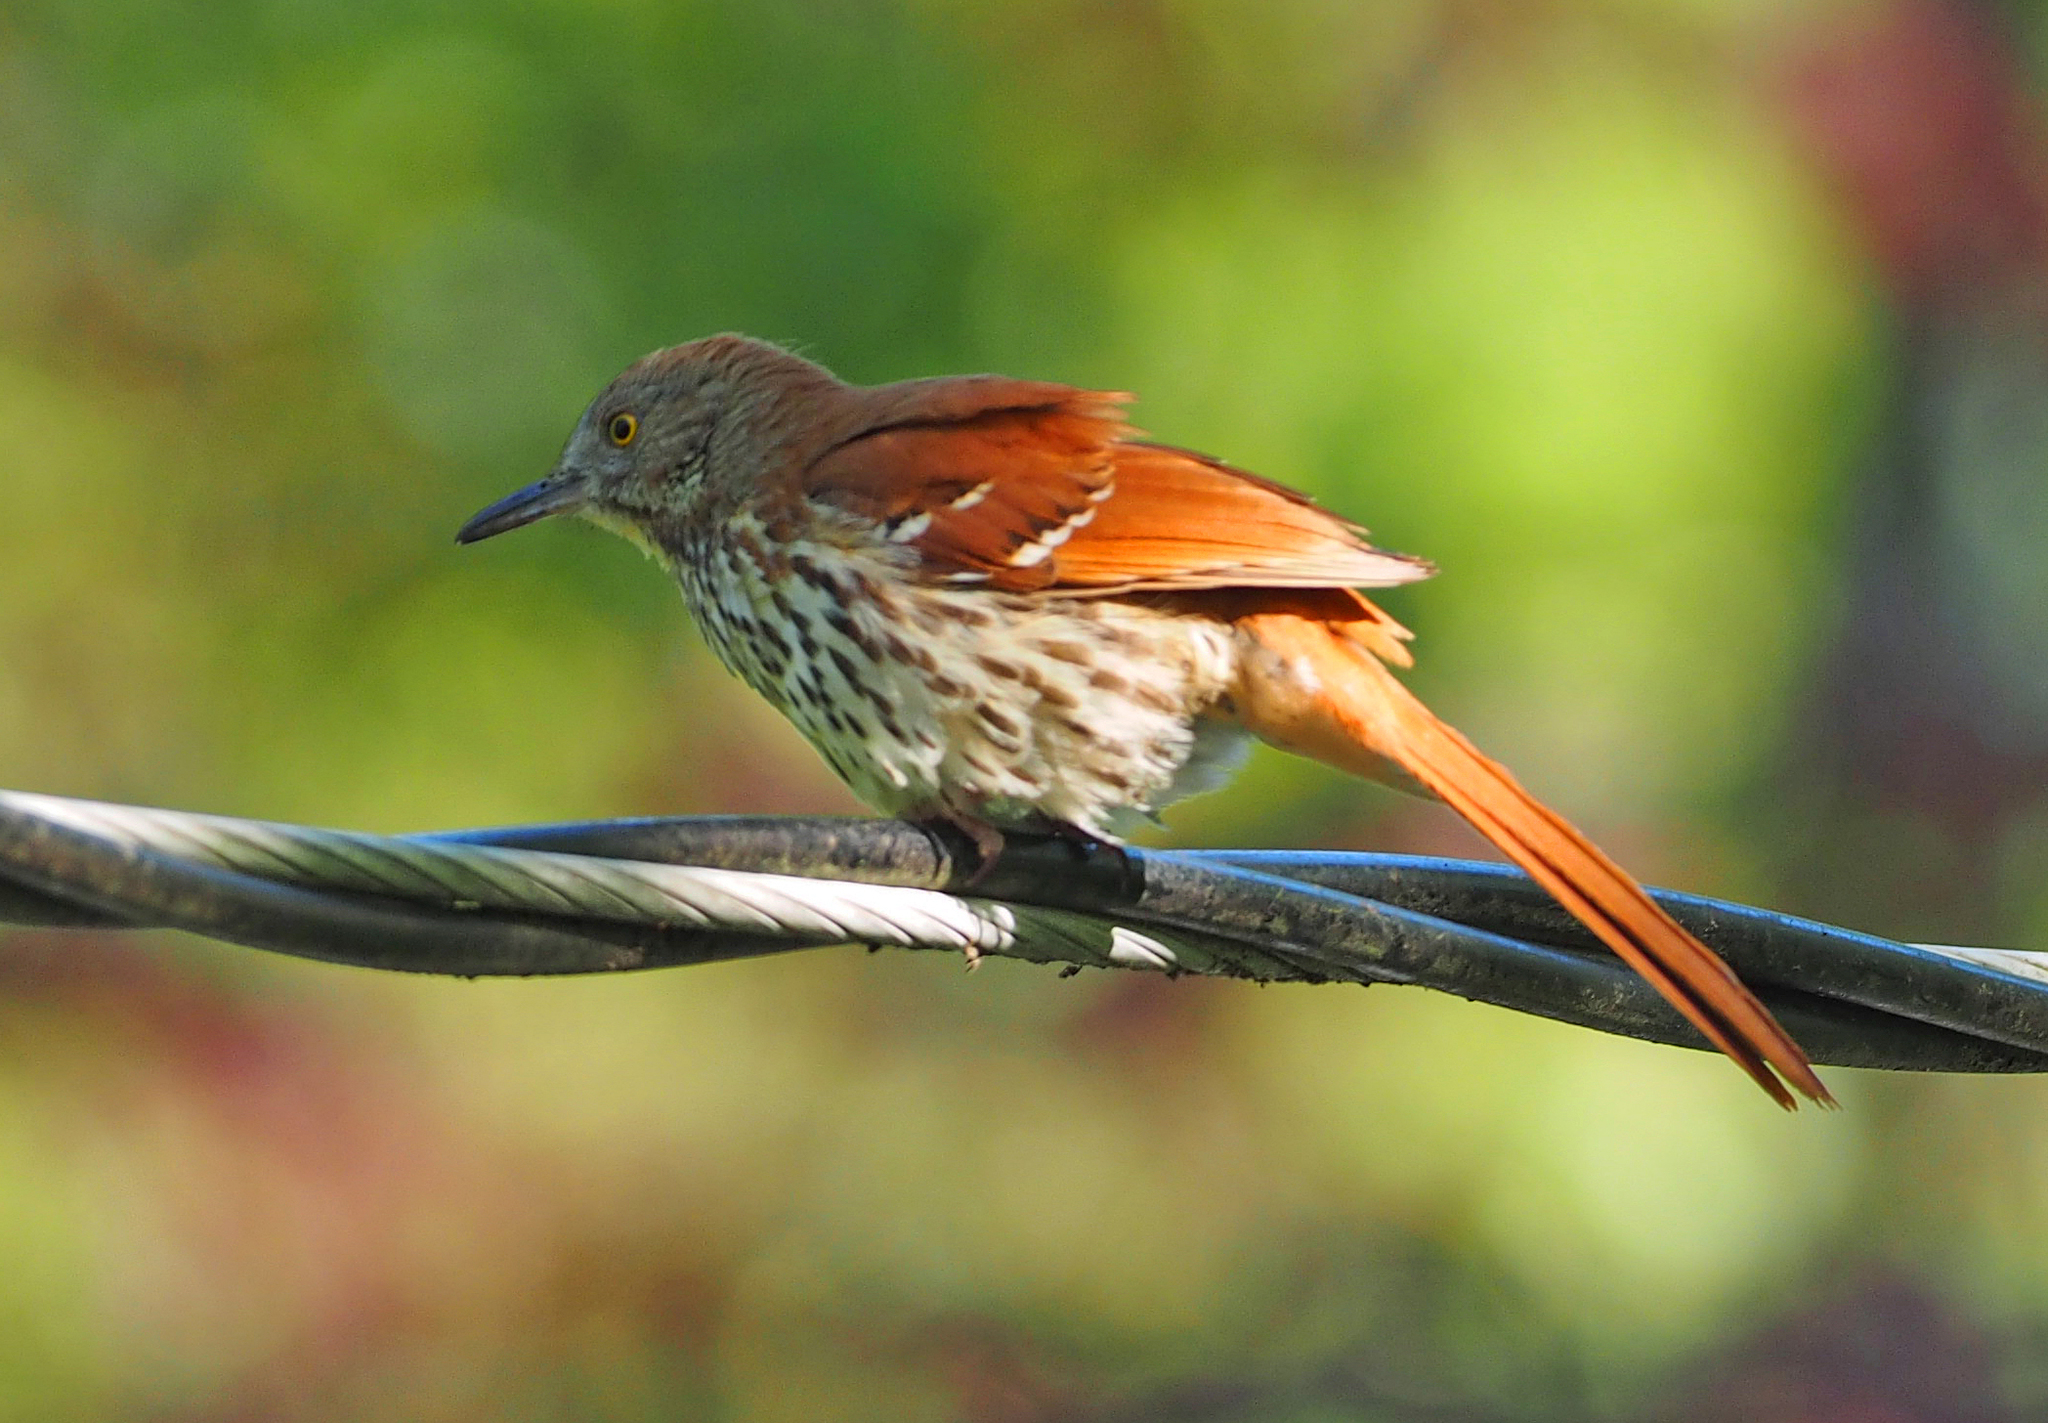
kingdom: Animalia
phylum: Chordata
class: Aves
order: Passeriformes
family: Mimidae
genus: Toxostoma
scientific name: Toxostoma rufum
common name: Brown thrasher
